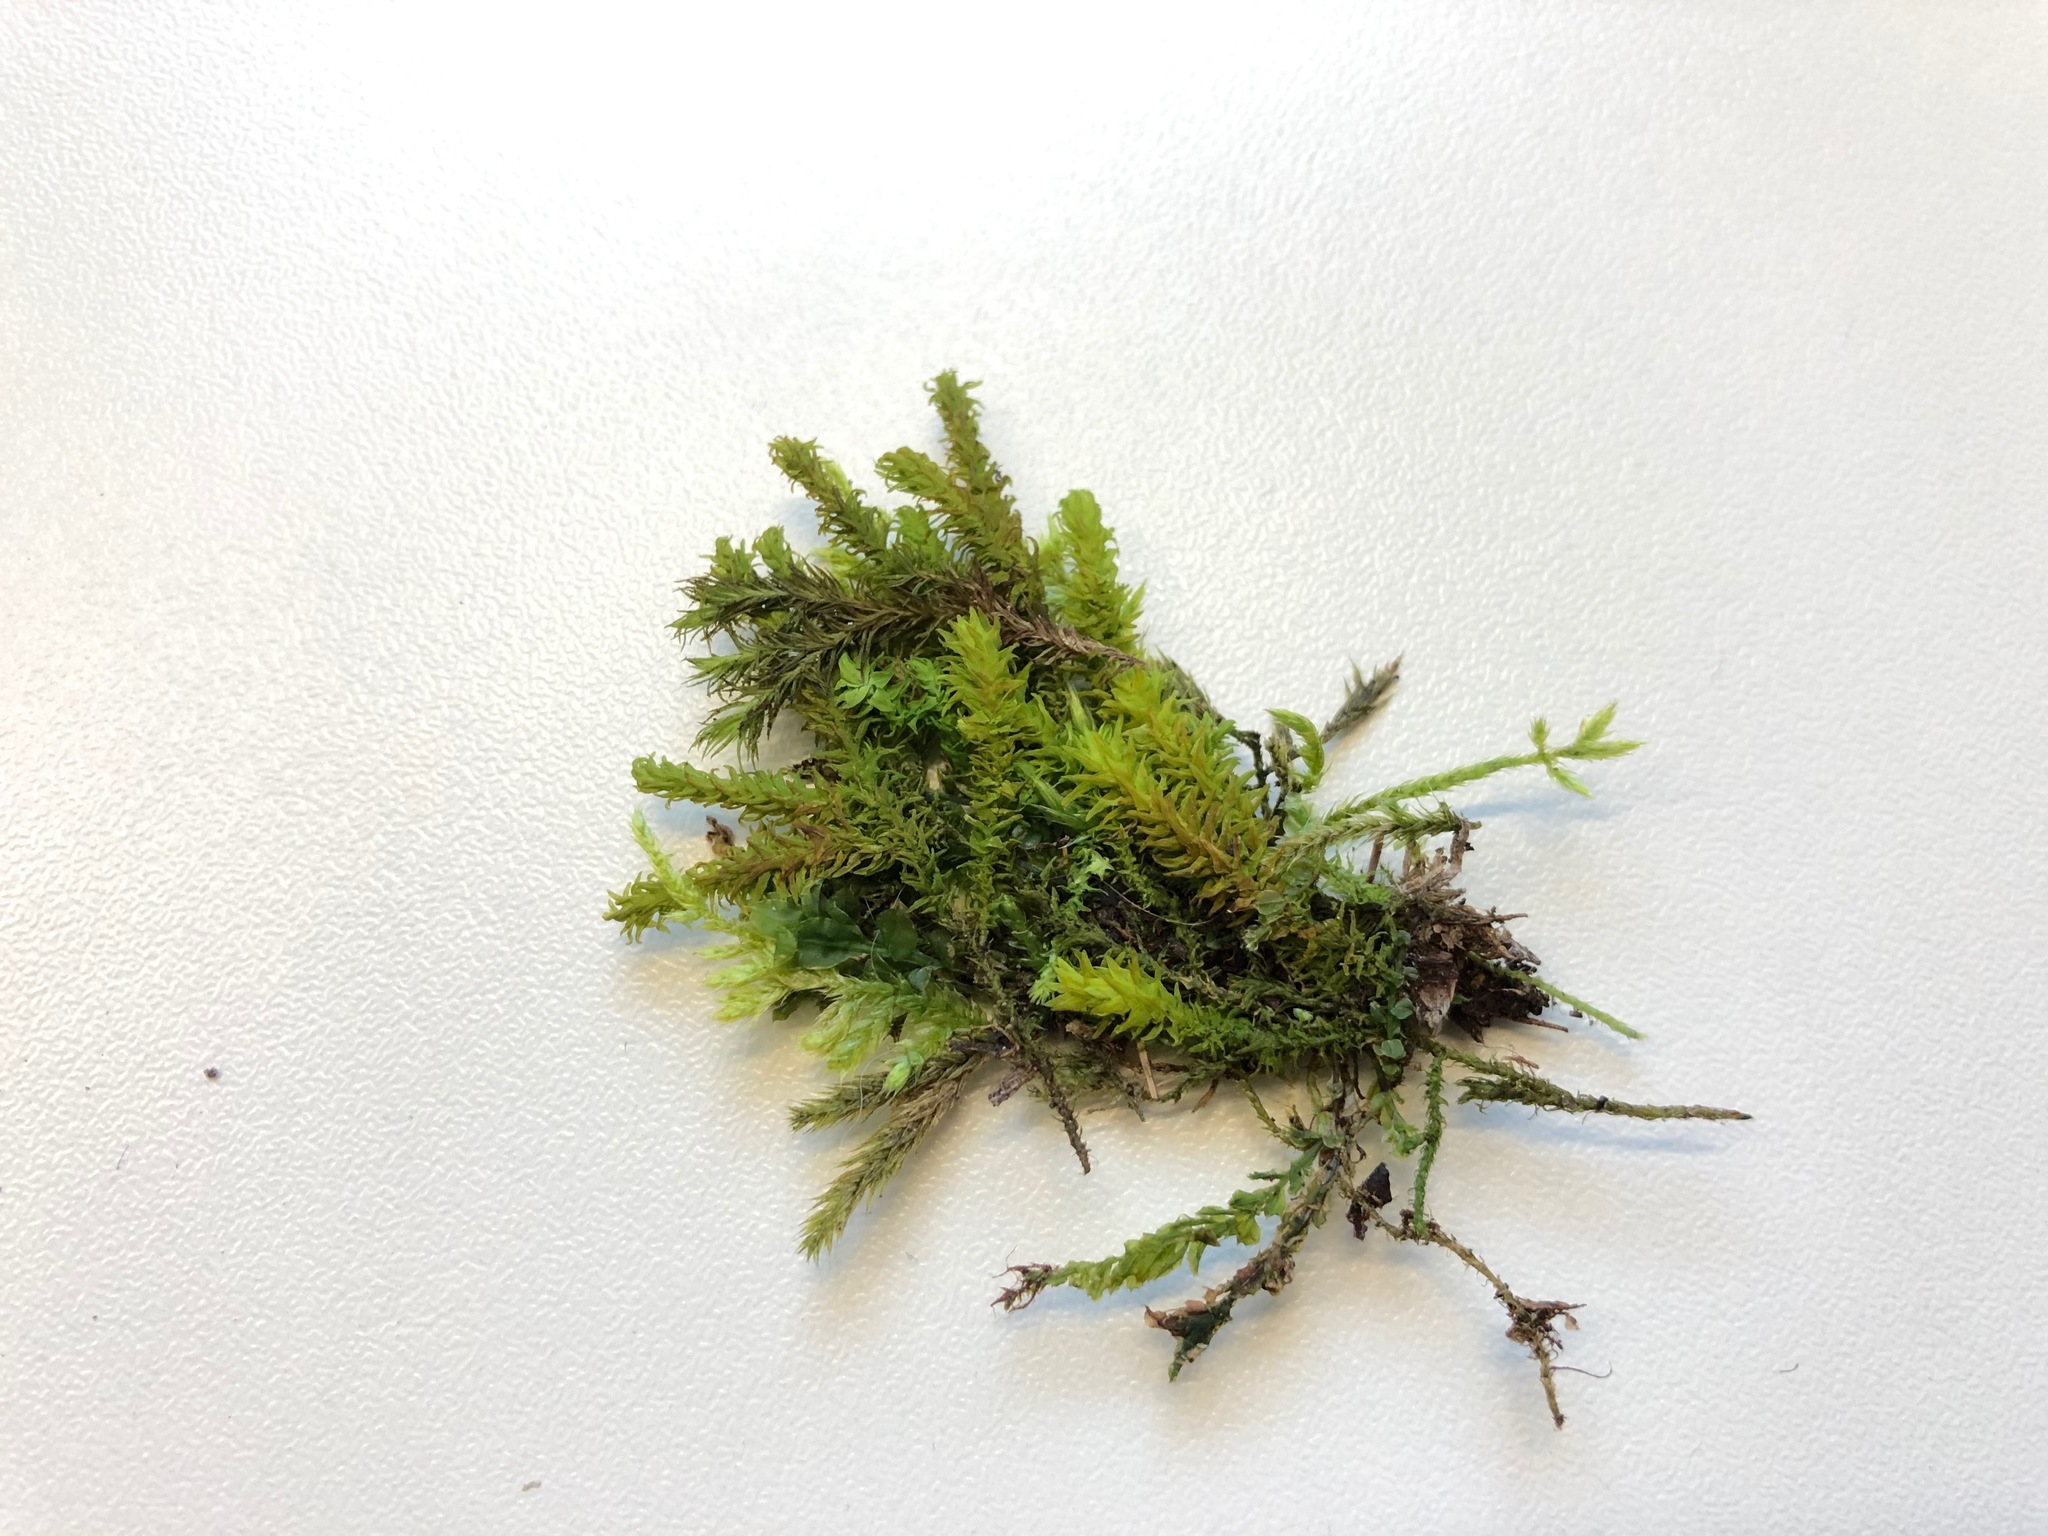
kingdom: Plantae
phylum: Bryophyta
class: Bryopsida
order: Hypnales
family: Anomodontaceae
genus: Anomodon
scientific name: Anomodon viticulosus
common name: Tall anomodon
